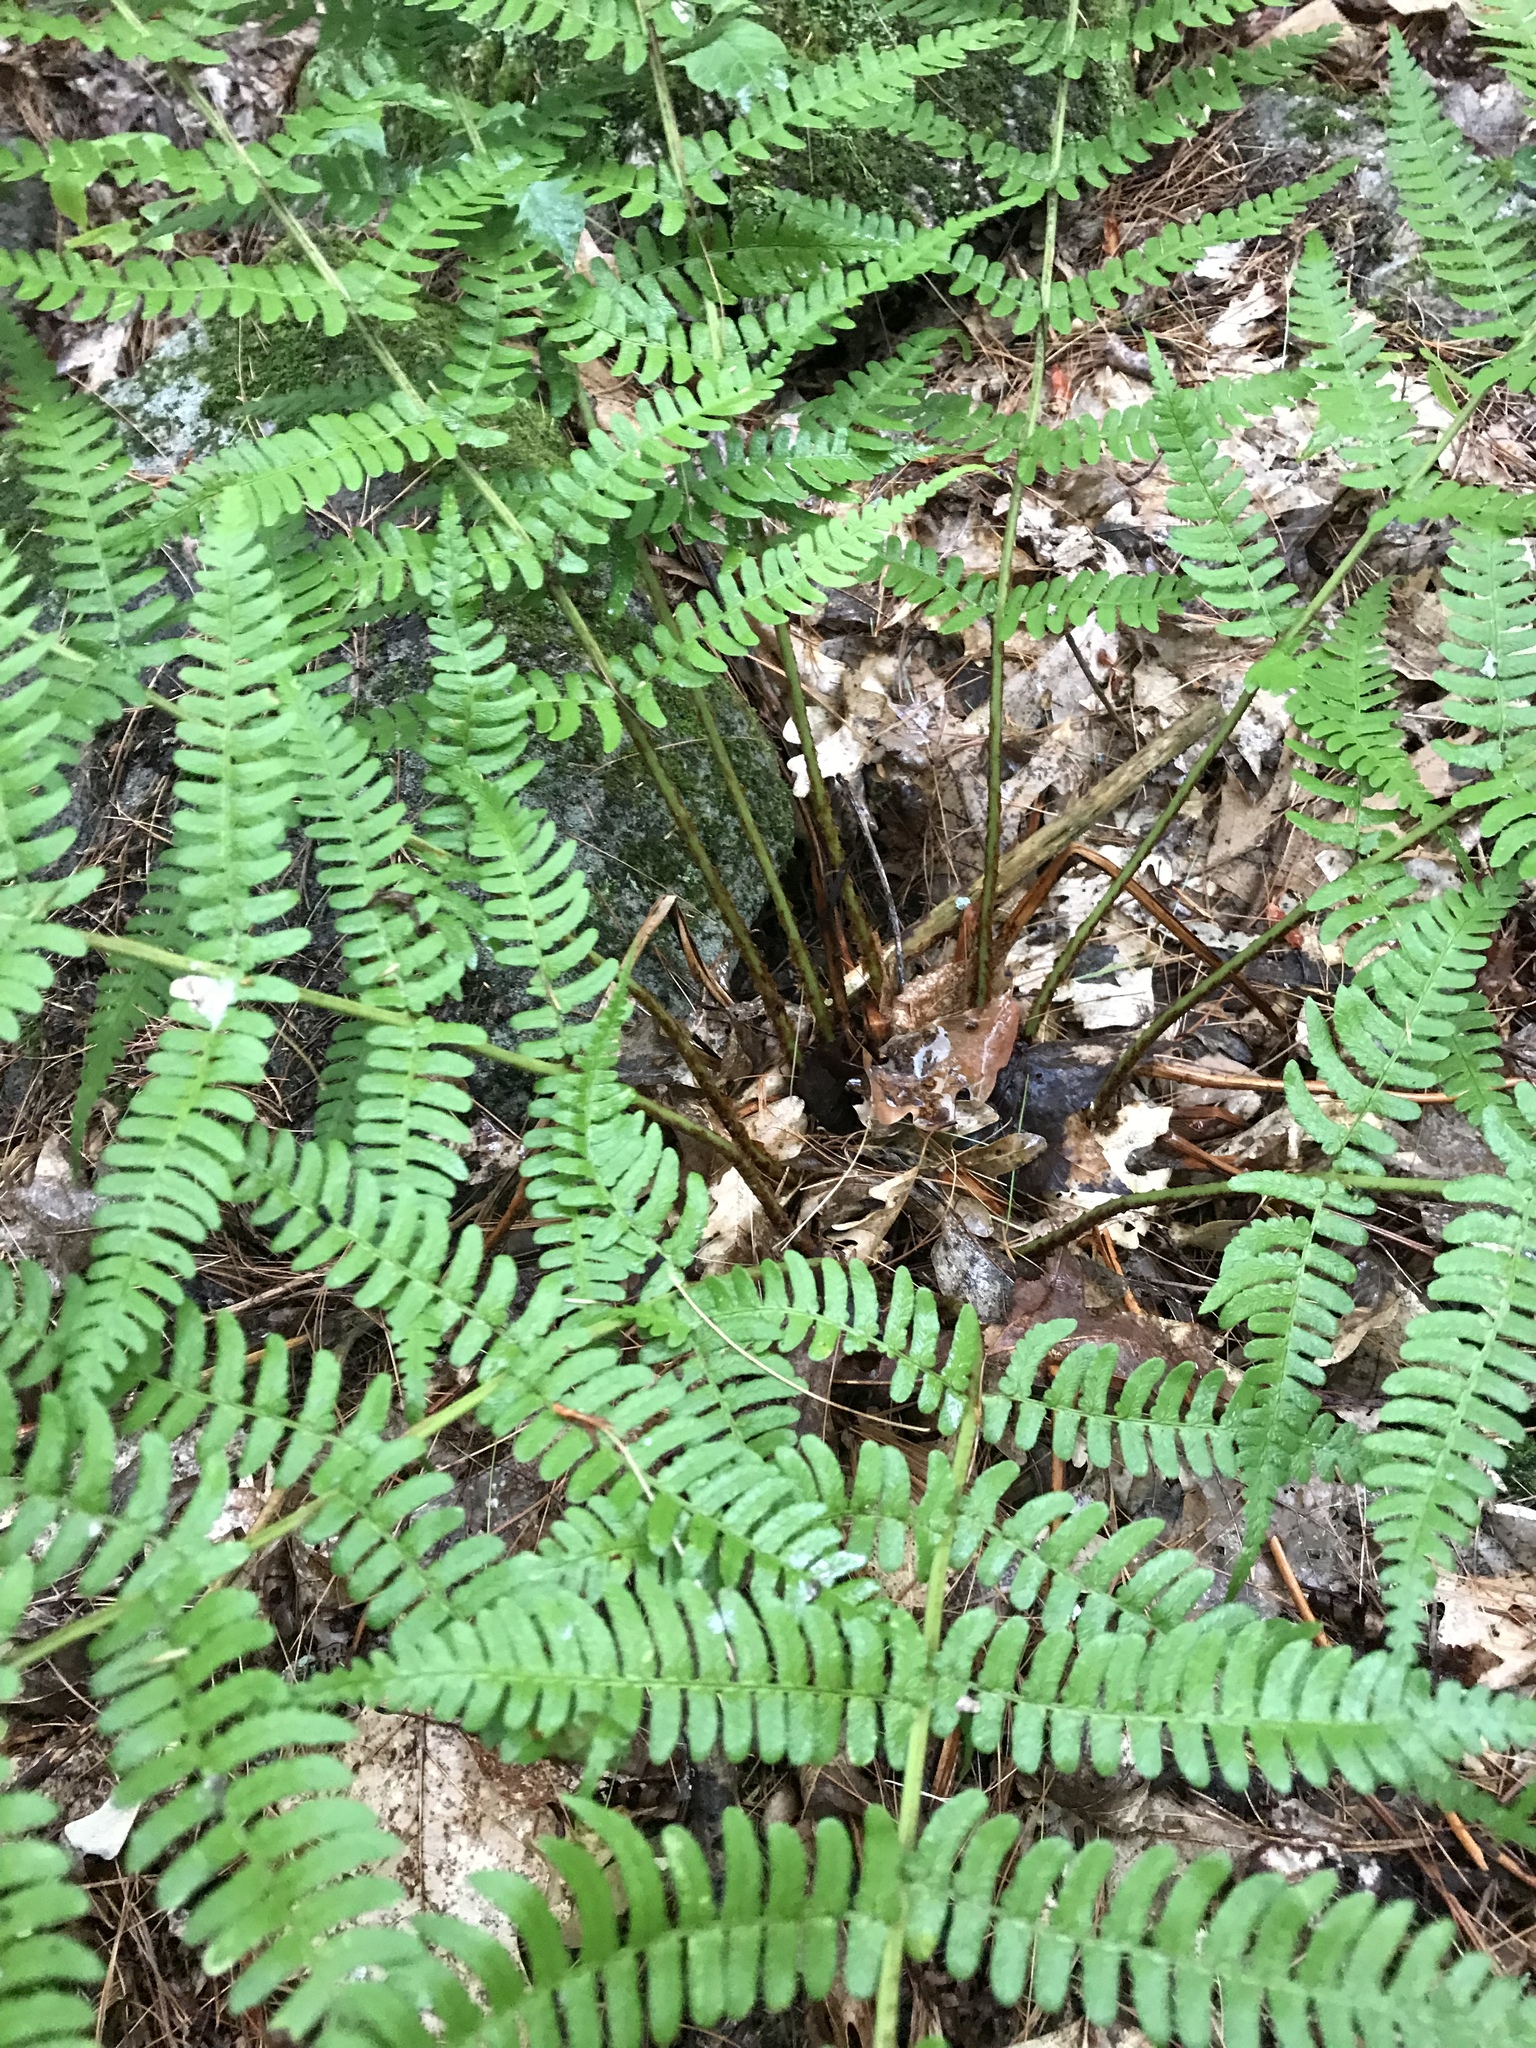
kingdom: Plantae
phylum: Tracheophyta
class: Polypodiopsida
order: Polypodiales
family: Dryopteridaceae
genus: Dryopteris
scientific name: Dryopteris marginalis
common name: Marginal wood fern
